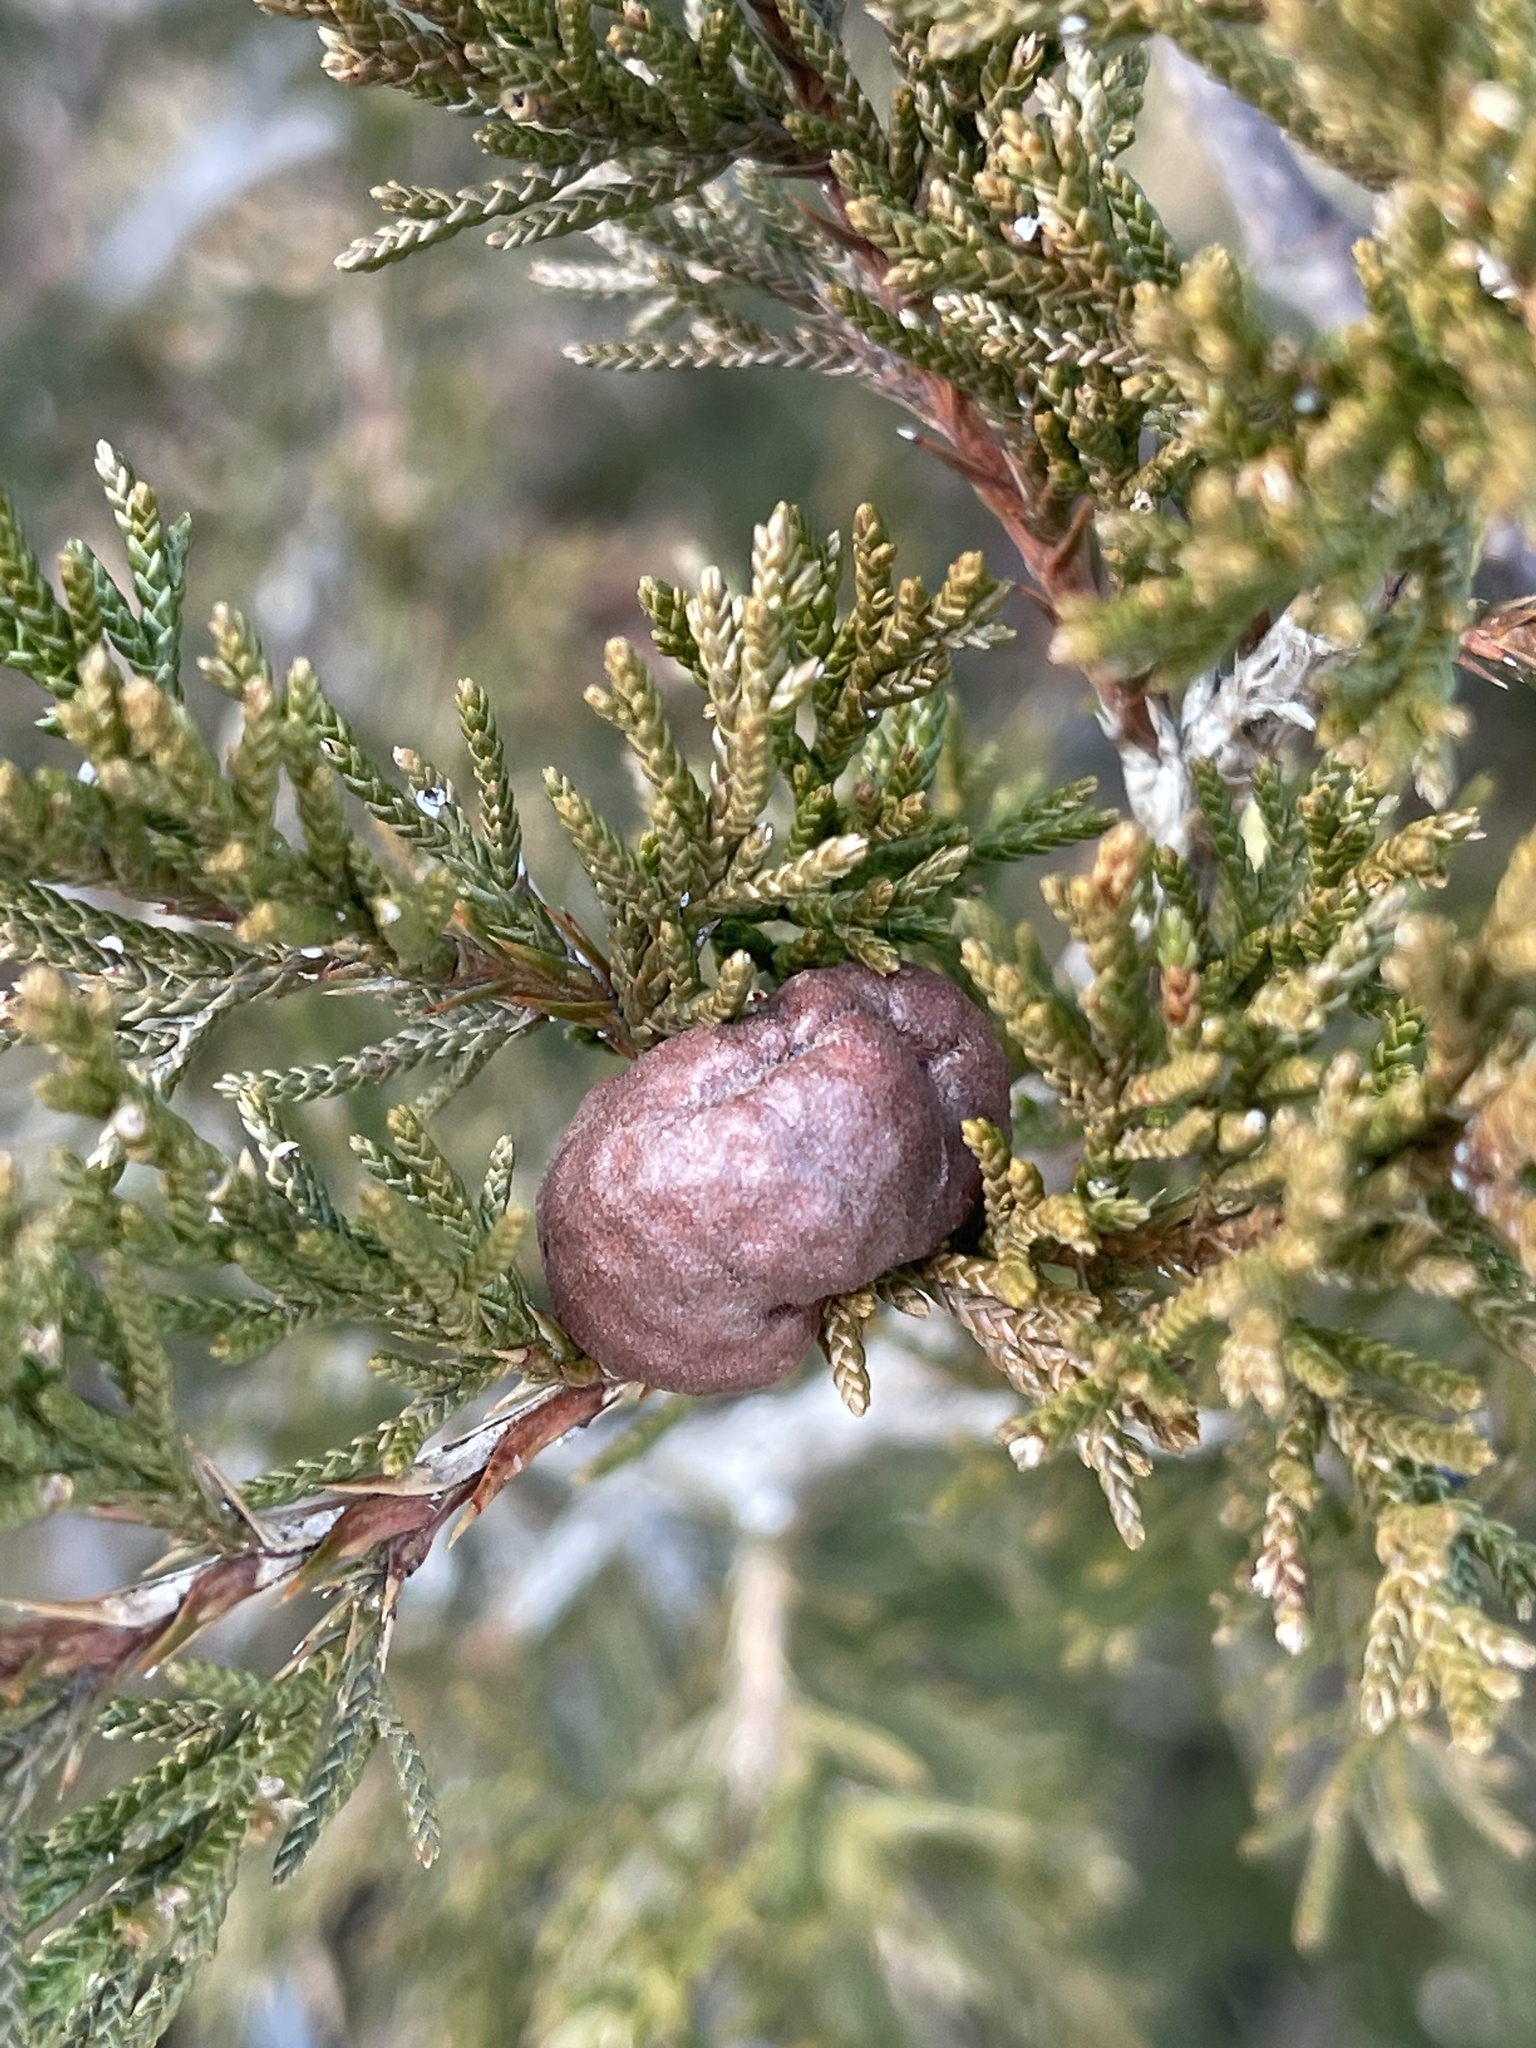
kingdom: Fungi
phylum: Basidiomycota
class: Pucciniomycetes
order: Pucciniales
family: Gymnosporangiaceae
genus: Gymnosporangium
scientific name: Gymnosporangium juniperi-virginianae
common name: Juniper-apple rust
